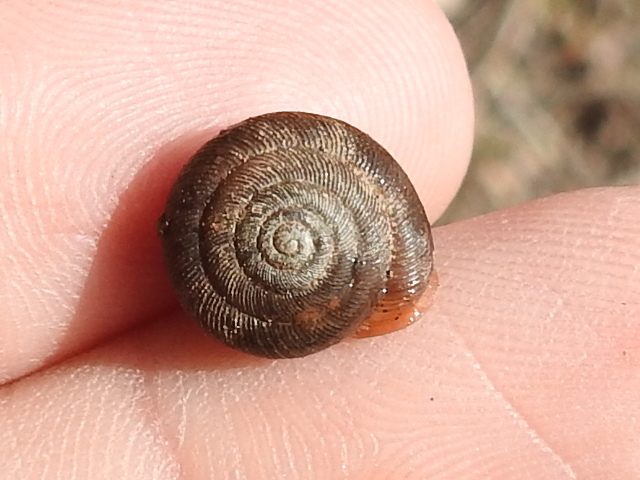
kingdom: Animalia
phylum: Mollusca
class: Gastropoda
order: Stylommatophora
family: Polygyridae
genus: Triodopsis
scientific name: Triodopsis hopetonensis
